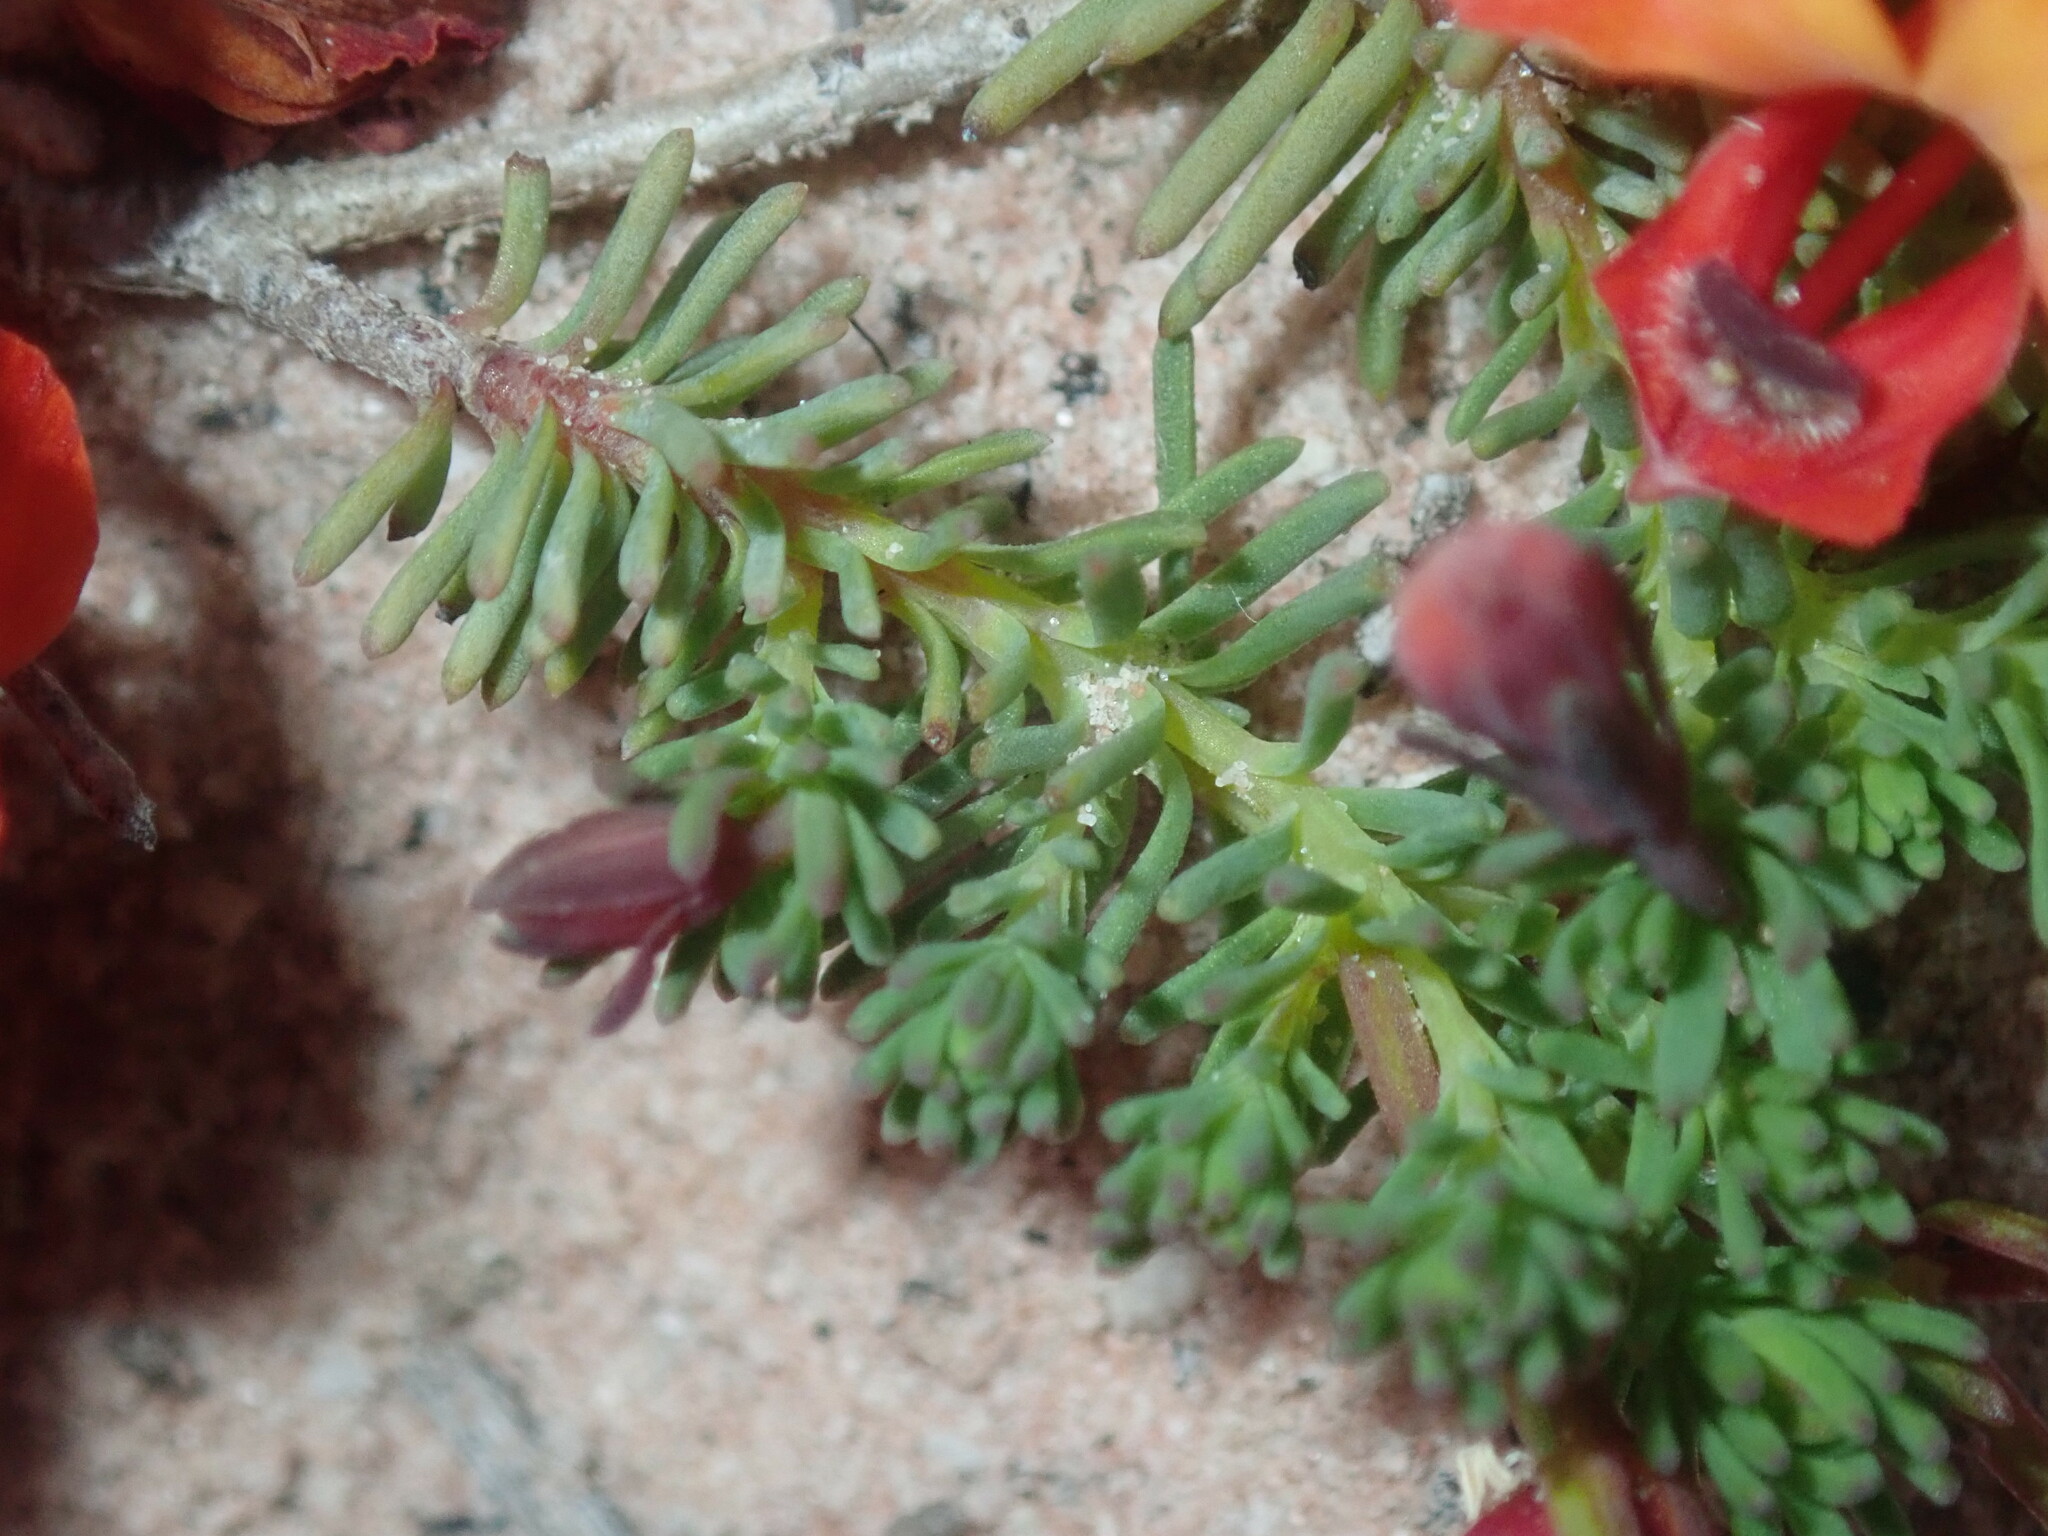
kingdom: Plantae
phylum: Tracheophyta
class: Magnoliopsida
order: Asterales
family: Goodeniaceae
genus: Lechenaultia
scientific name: Lechenaultia formosa
